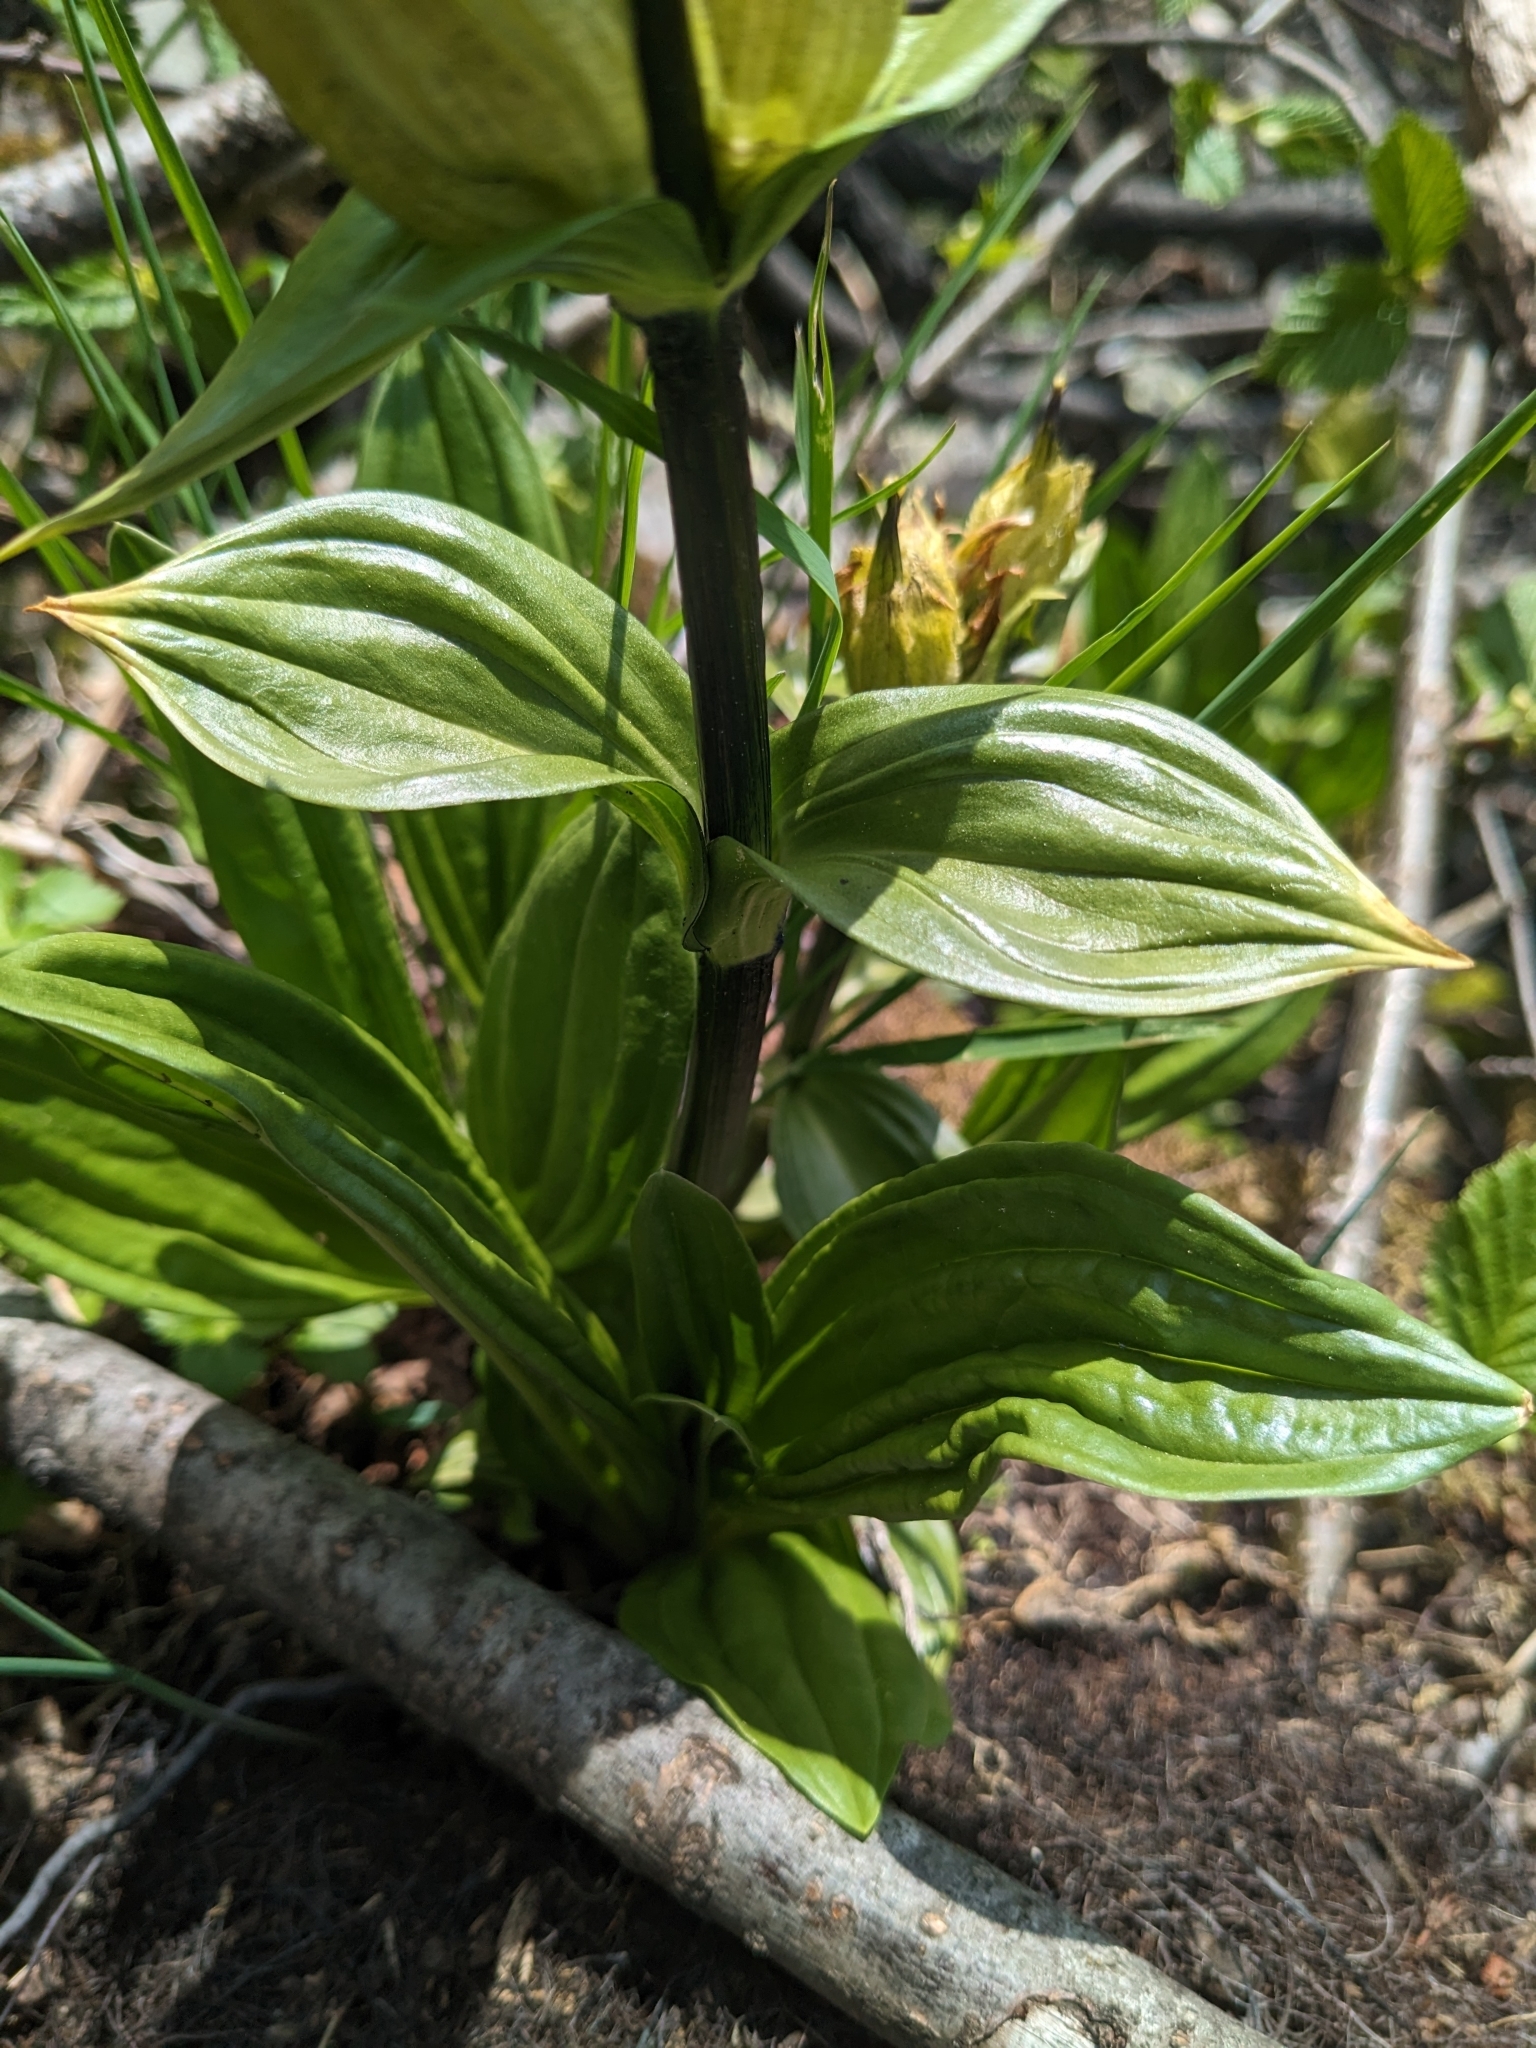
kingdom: Plantae
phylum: Tracheophyta
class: Magnoliopsida
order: Gentianales
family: Gentianaceae
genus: Gentiana
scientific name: Gentiana punctata
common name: Spotted gentian
